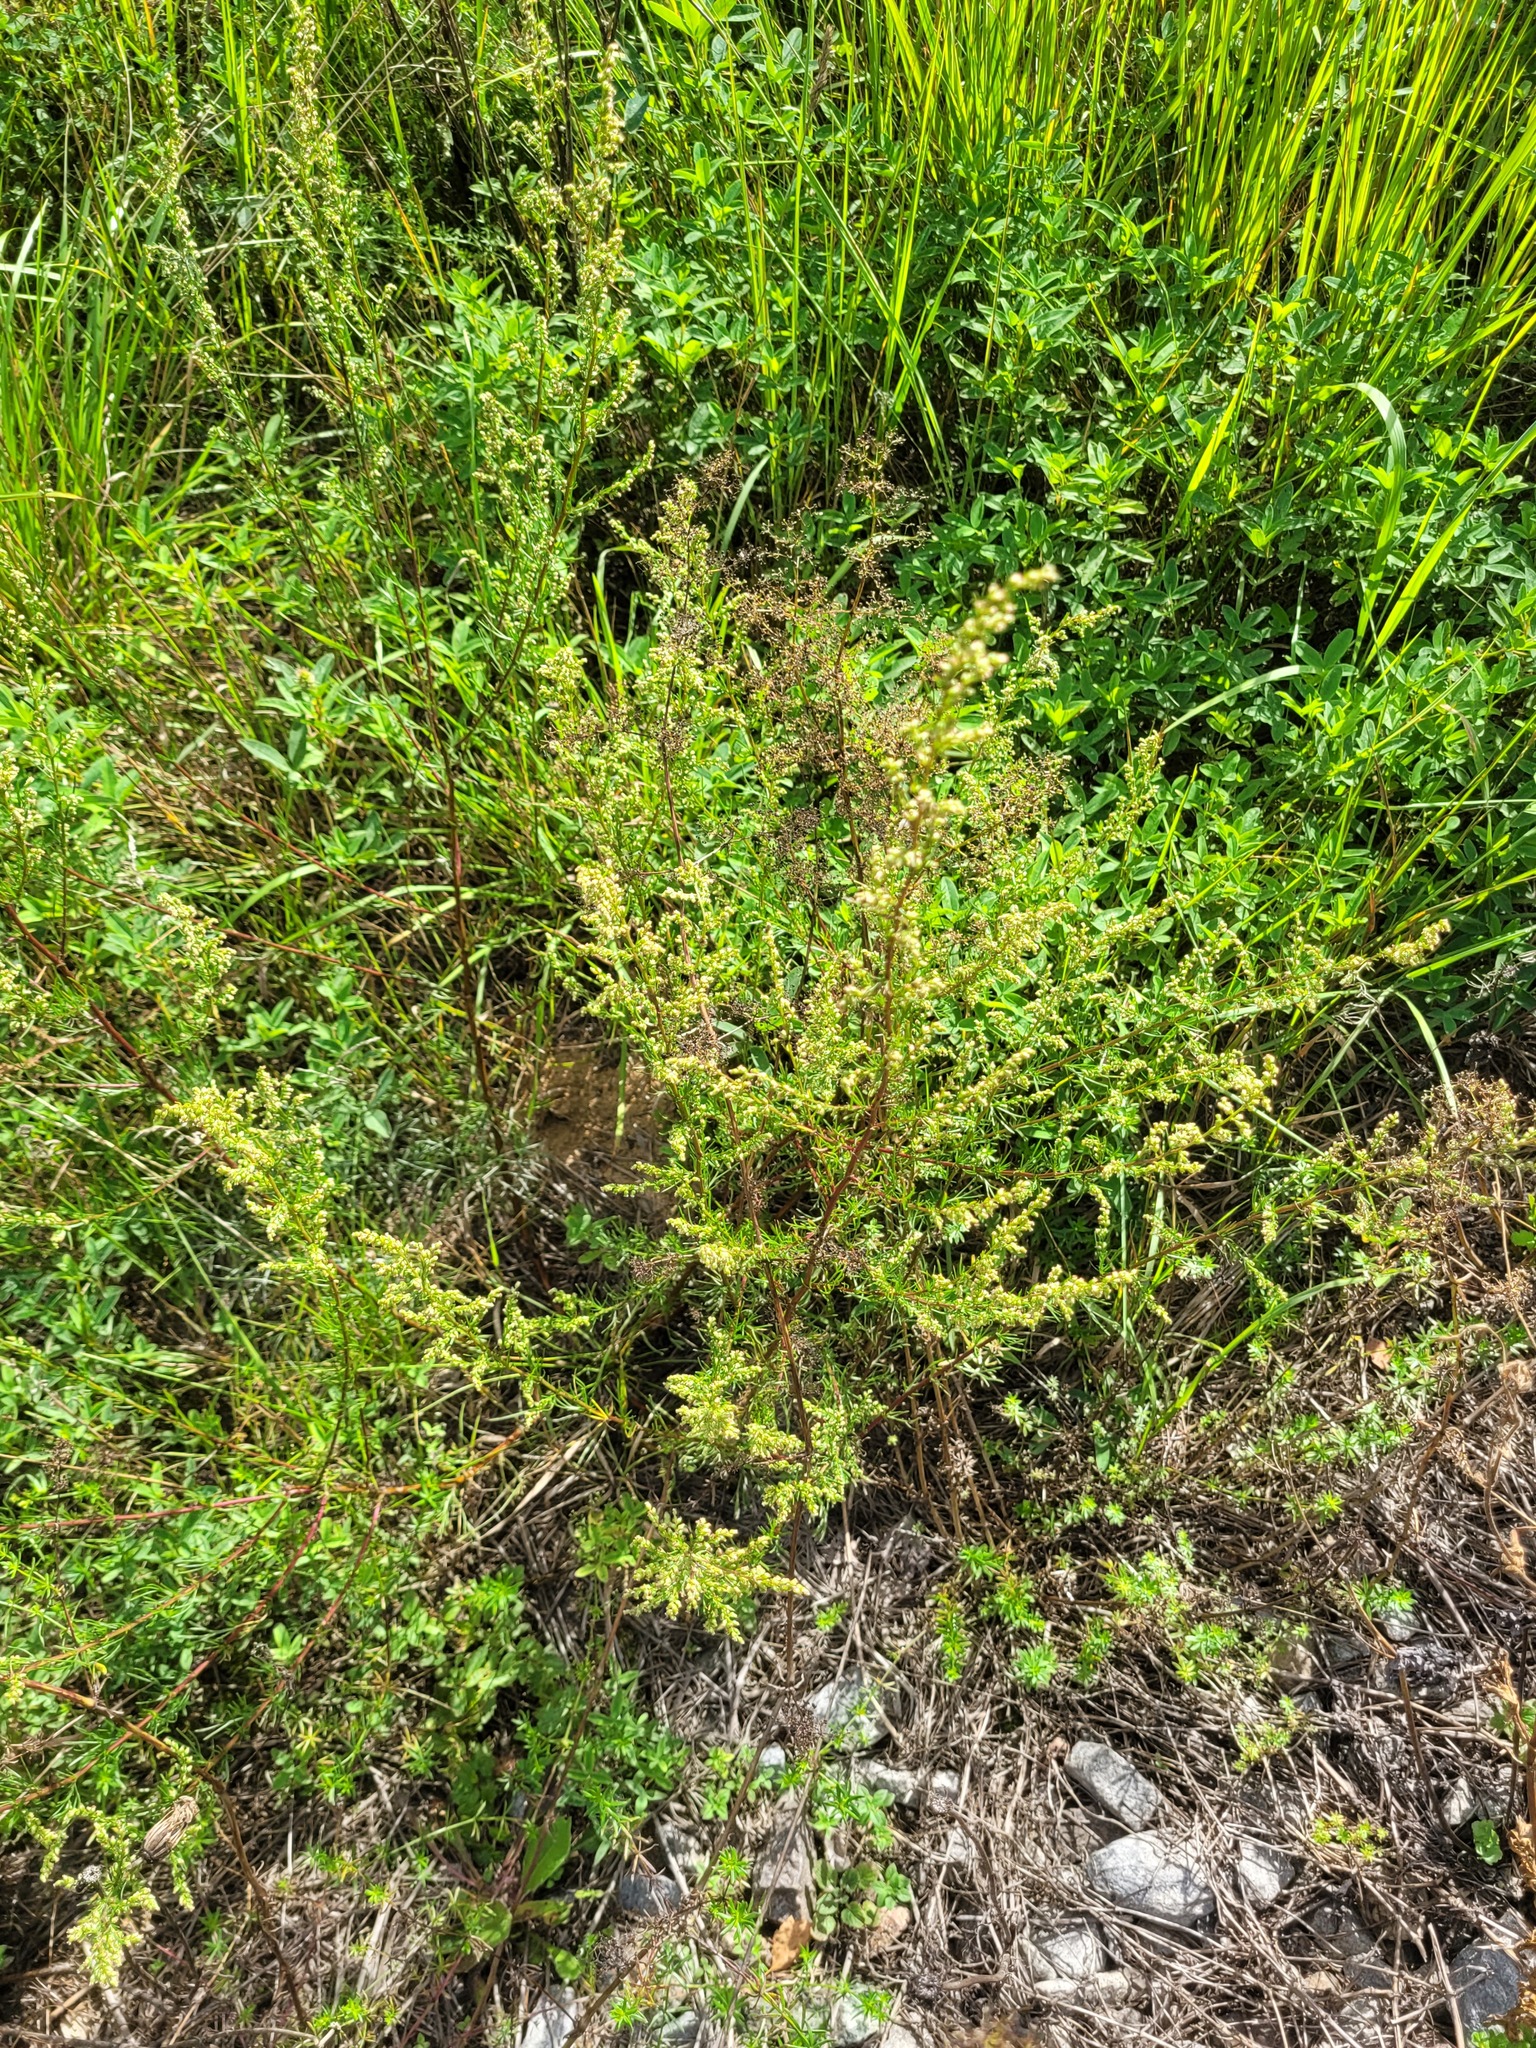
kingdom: Plantae
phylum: Tracheophyta
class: Magnoliopsida
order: Asterales
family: Asteraceae
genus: Artemisia
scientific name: Artemisia campestris
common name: Field wormwood
